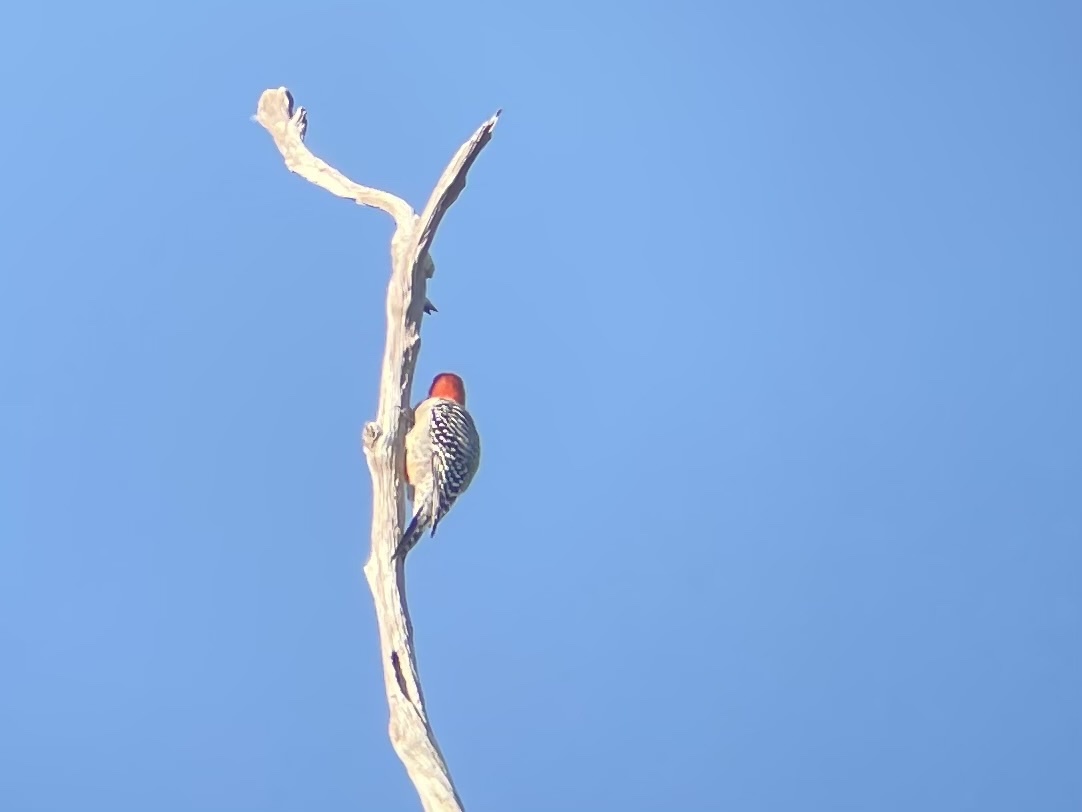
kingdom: Animalia
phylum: Chordata
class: Aves
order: Piciformes
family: Picidae
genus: Melanerpes
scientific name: Melanerpes carolinus
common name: Red-bellied woodpecker
